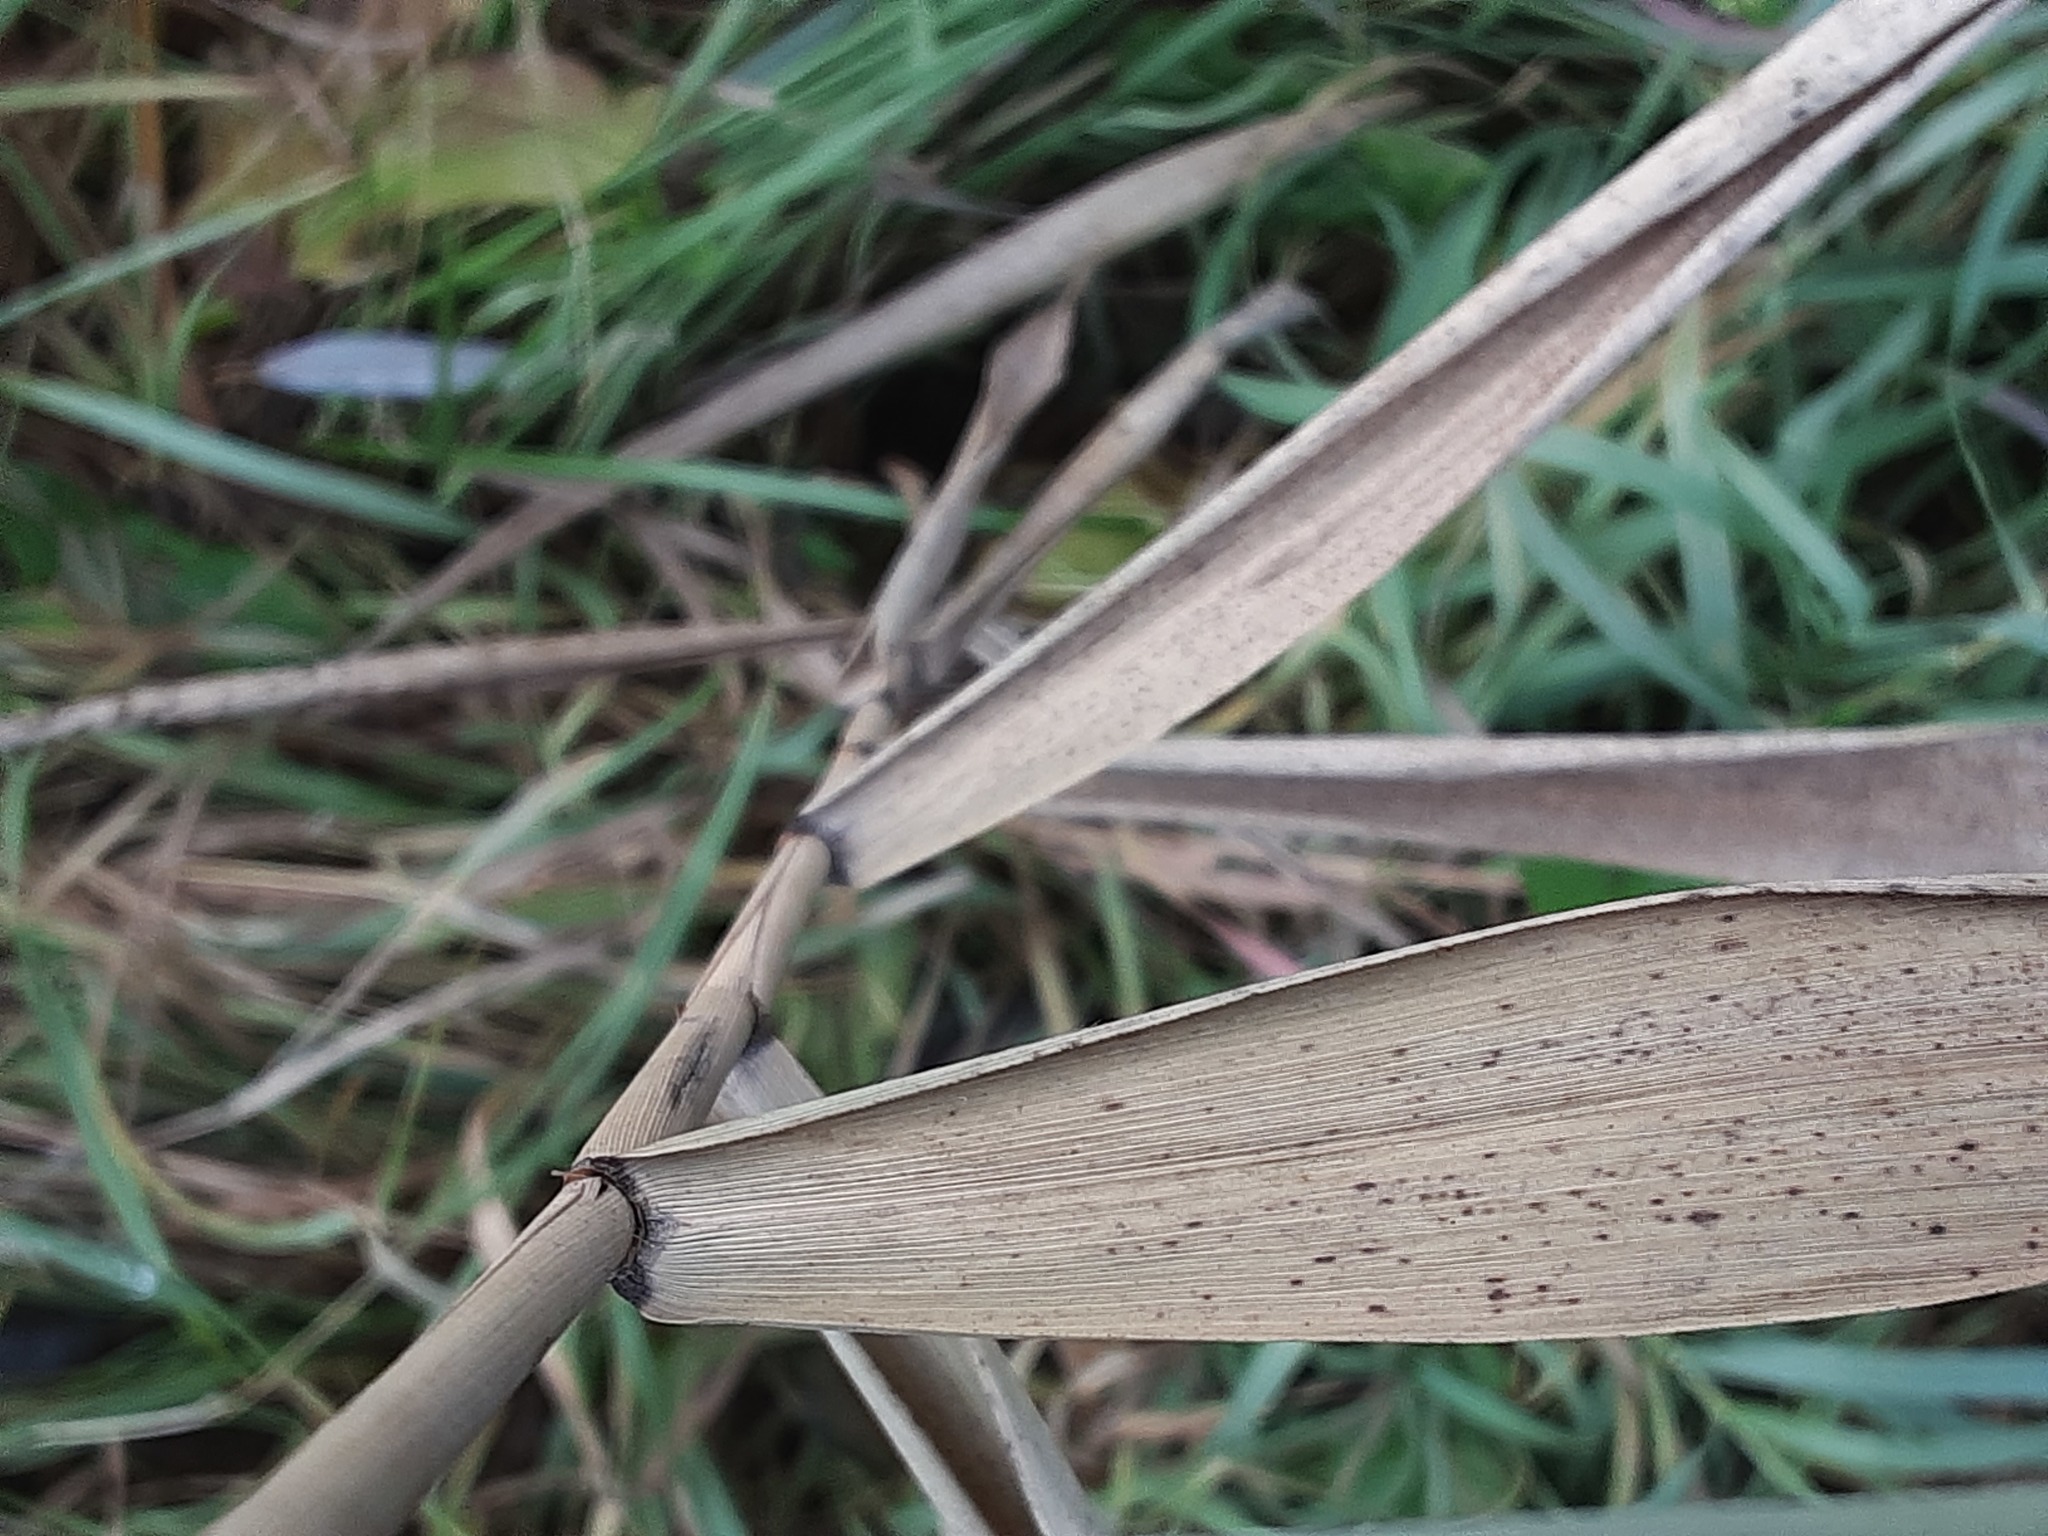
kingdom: Plantae
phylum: Tracheophyta
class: Liliopsida
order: Poales
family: Poaceae
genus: Phragmites
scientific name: Phragmites australis
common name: Common reed
